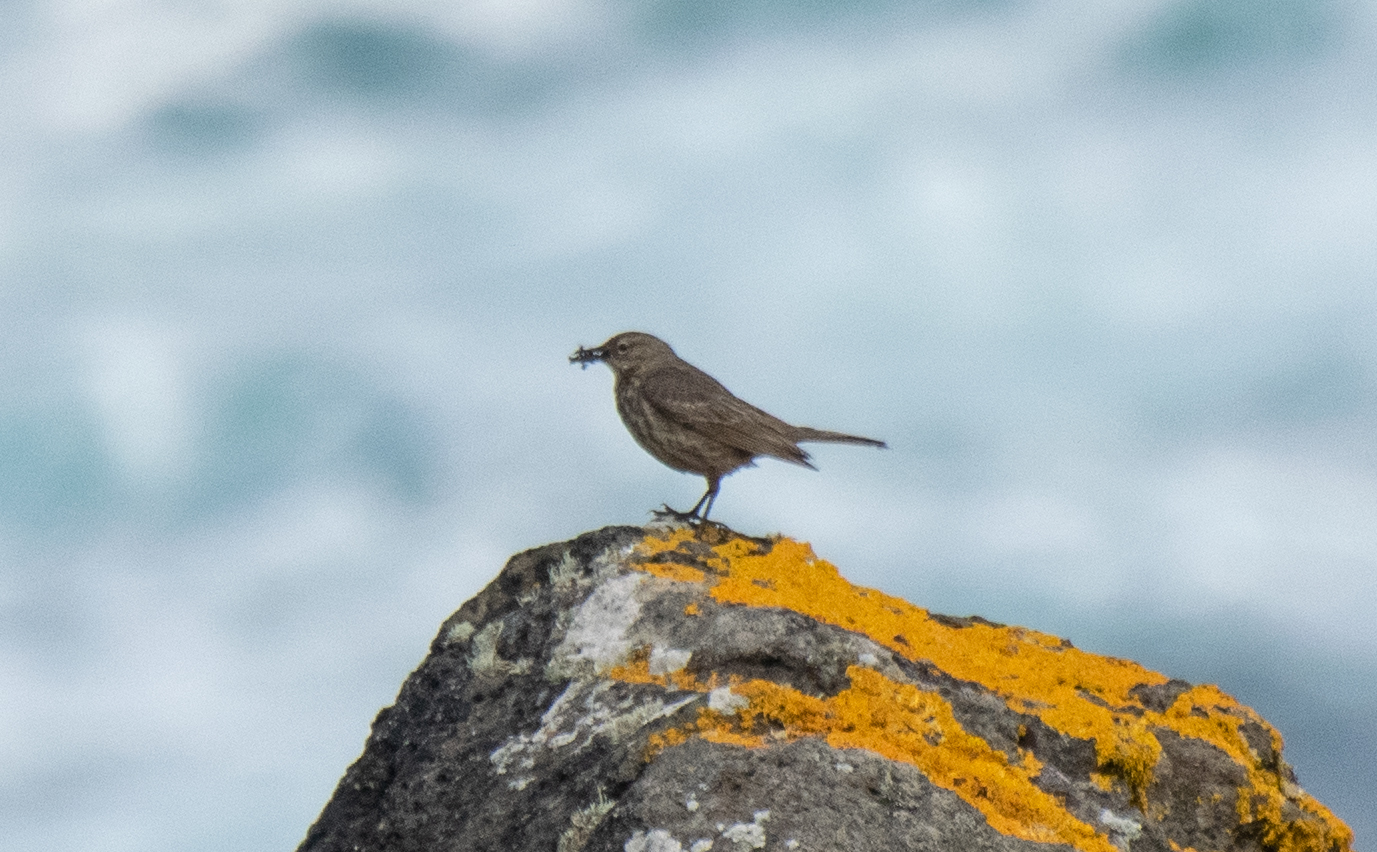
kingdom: Animalia
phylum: Chordata
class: Aves
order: Passeriformes
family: Motacillidae
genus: Anthus
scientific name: Anthus petrosus
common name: Eurasian rock pipit
